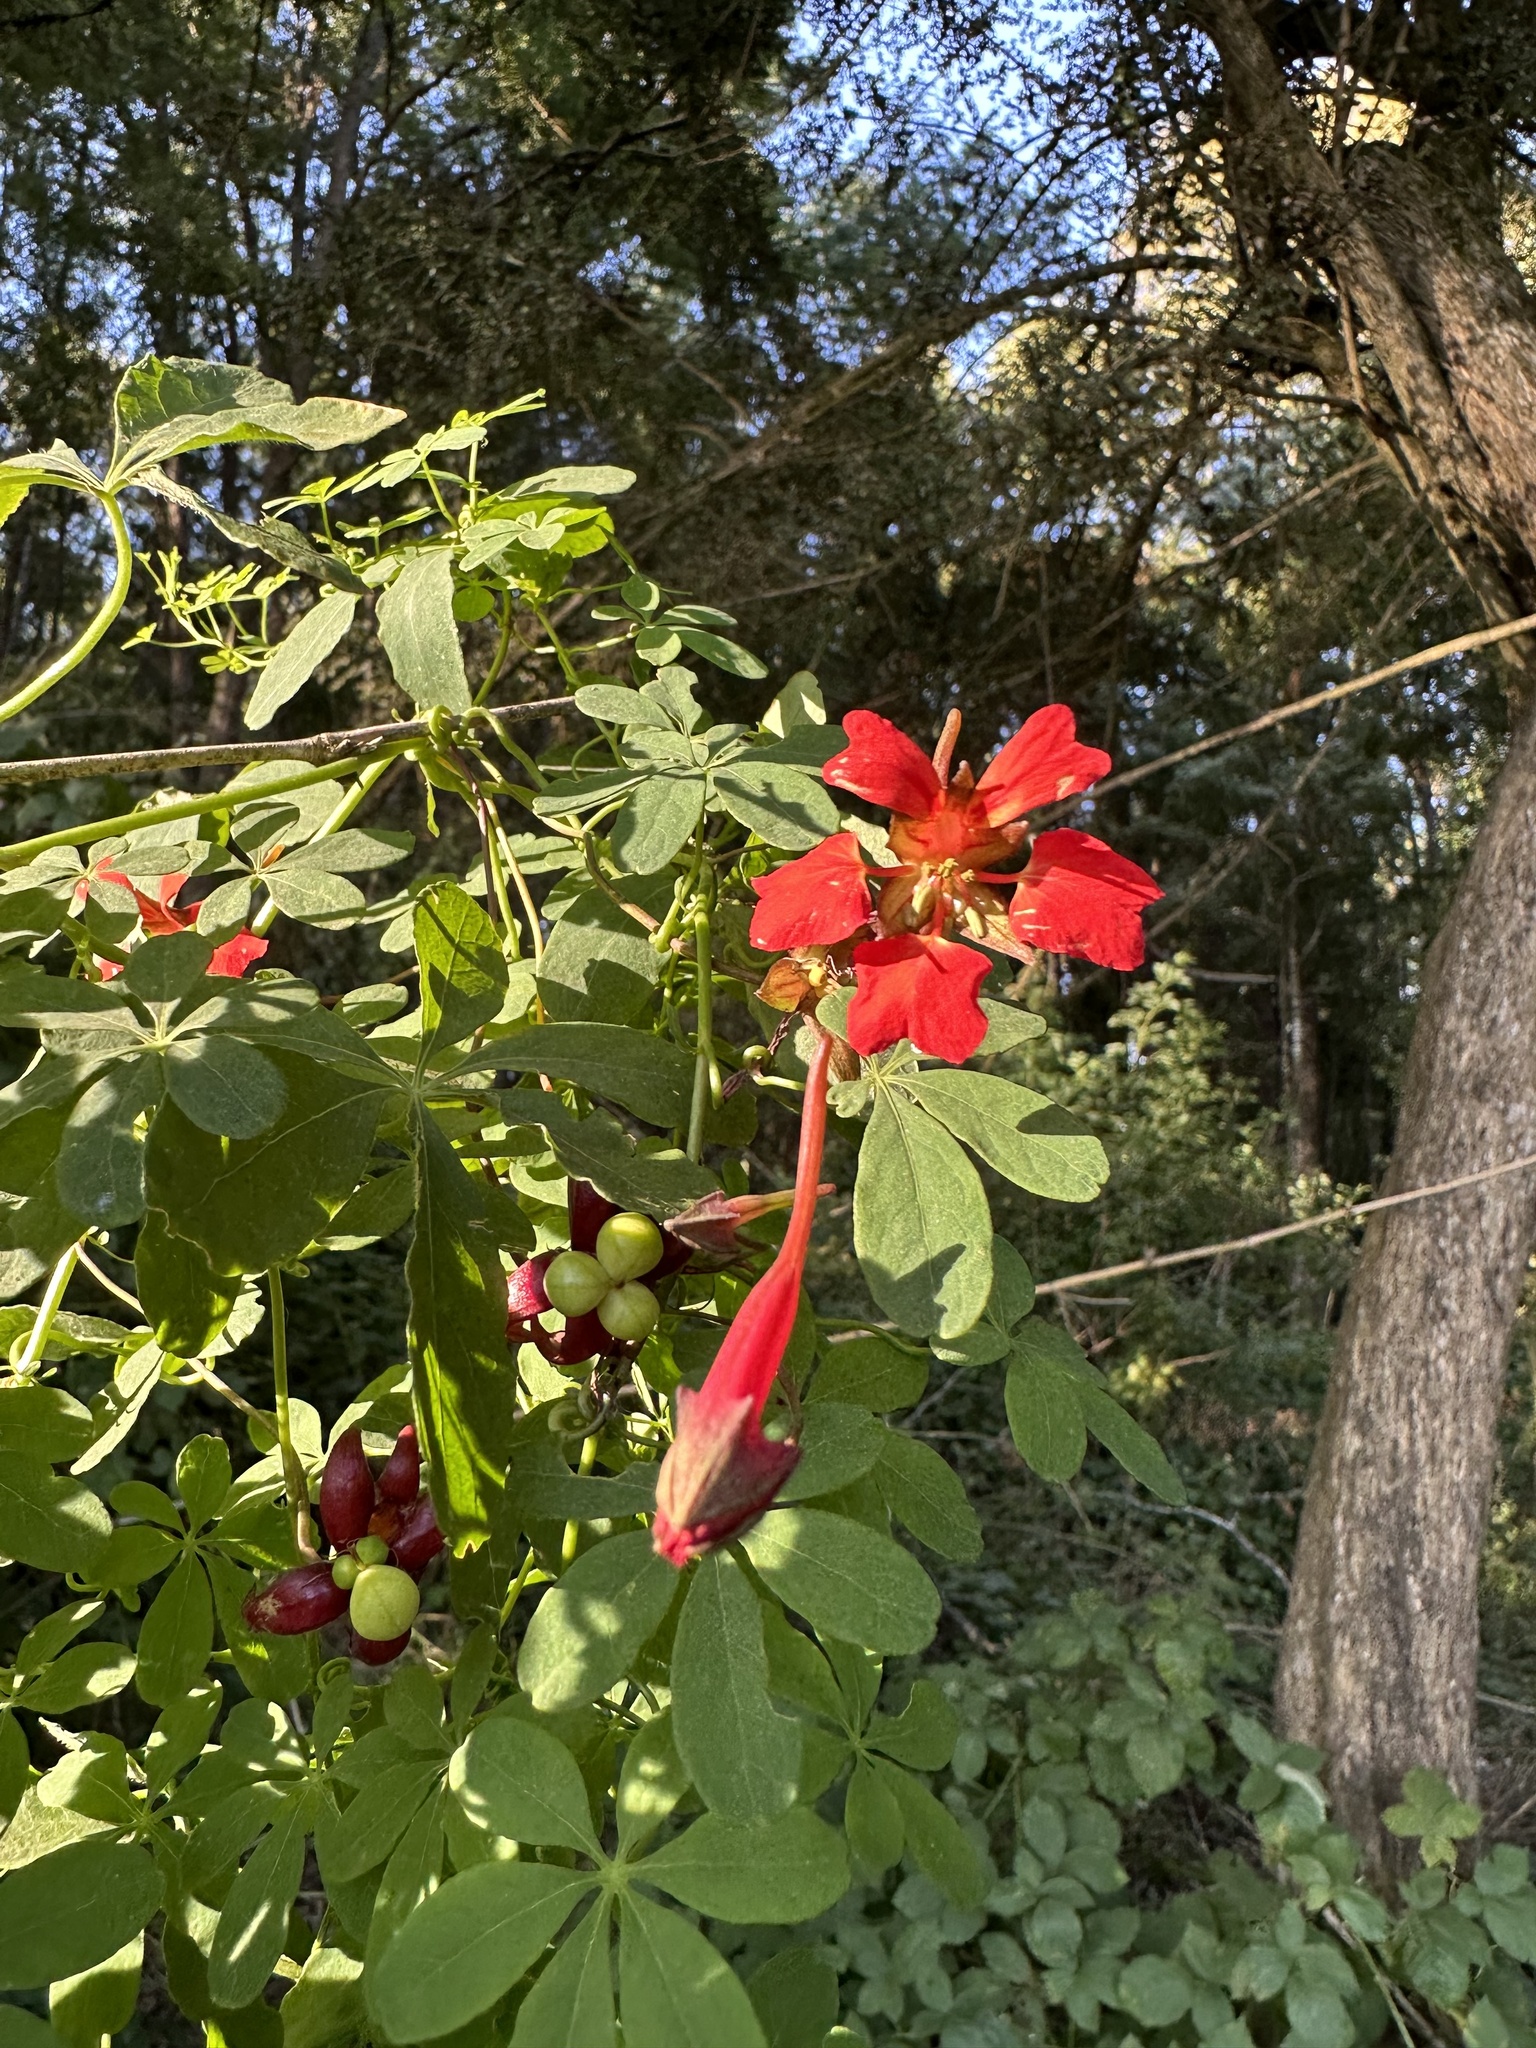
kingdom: Plantae
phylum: Tracheophyta
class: Magnoliopsida
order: Brassicales
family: Tropaeolaceae
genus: Tropaeolum
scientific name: Tropaeolum speciosum
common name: Flame nasturtium
